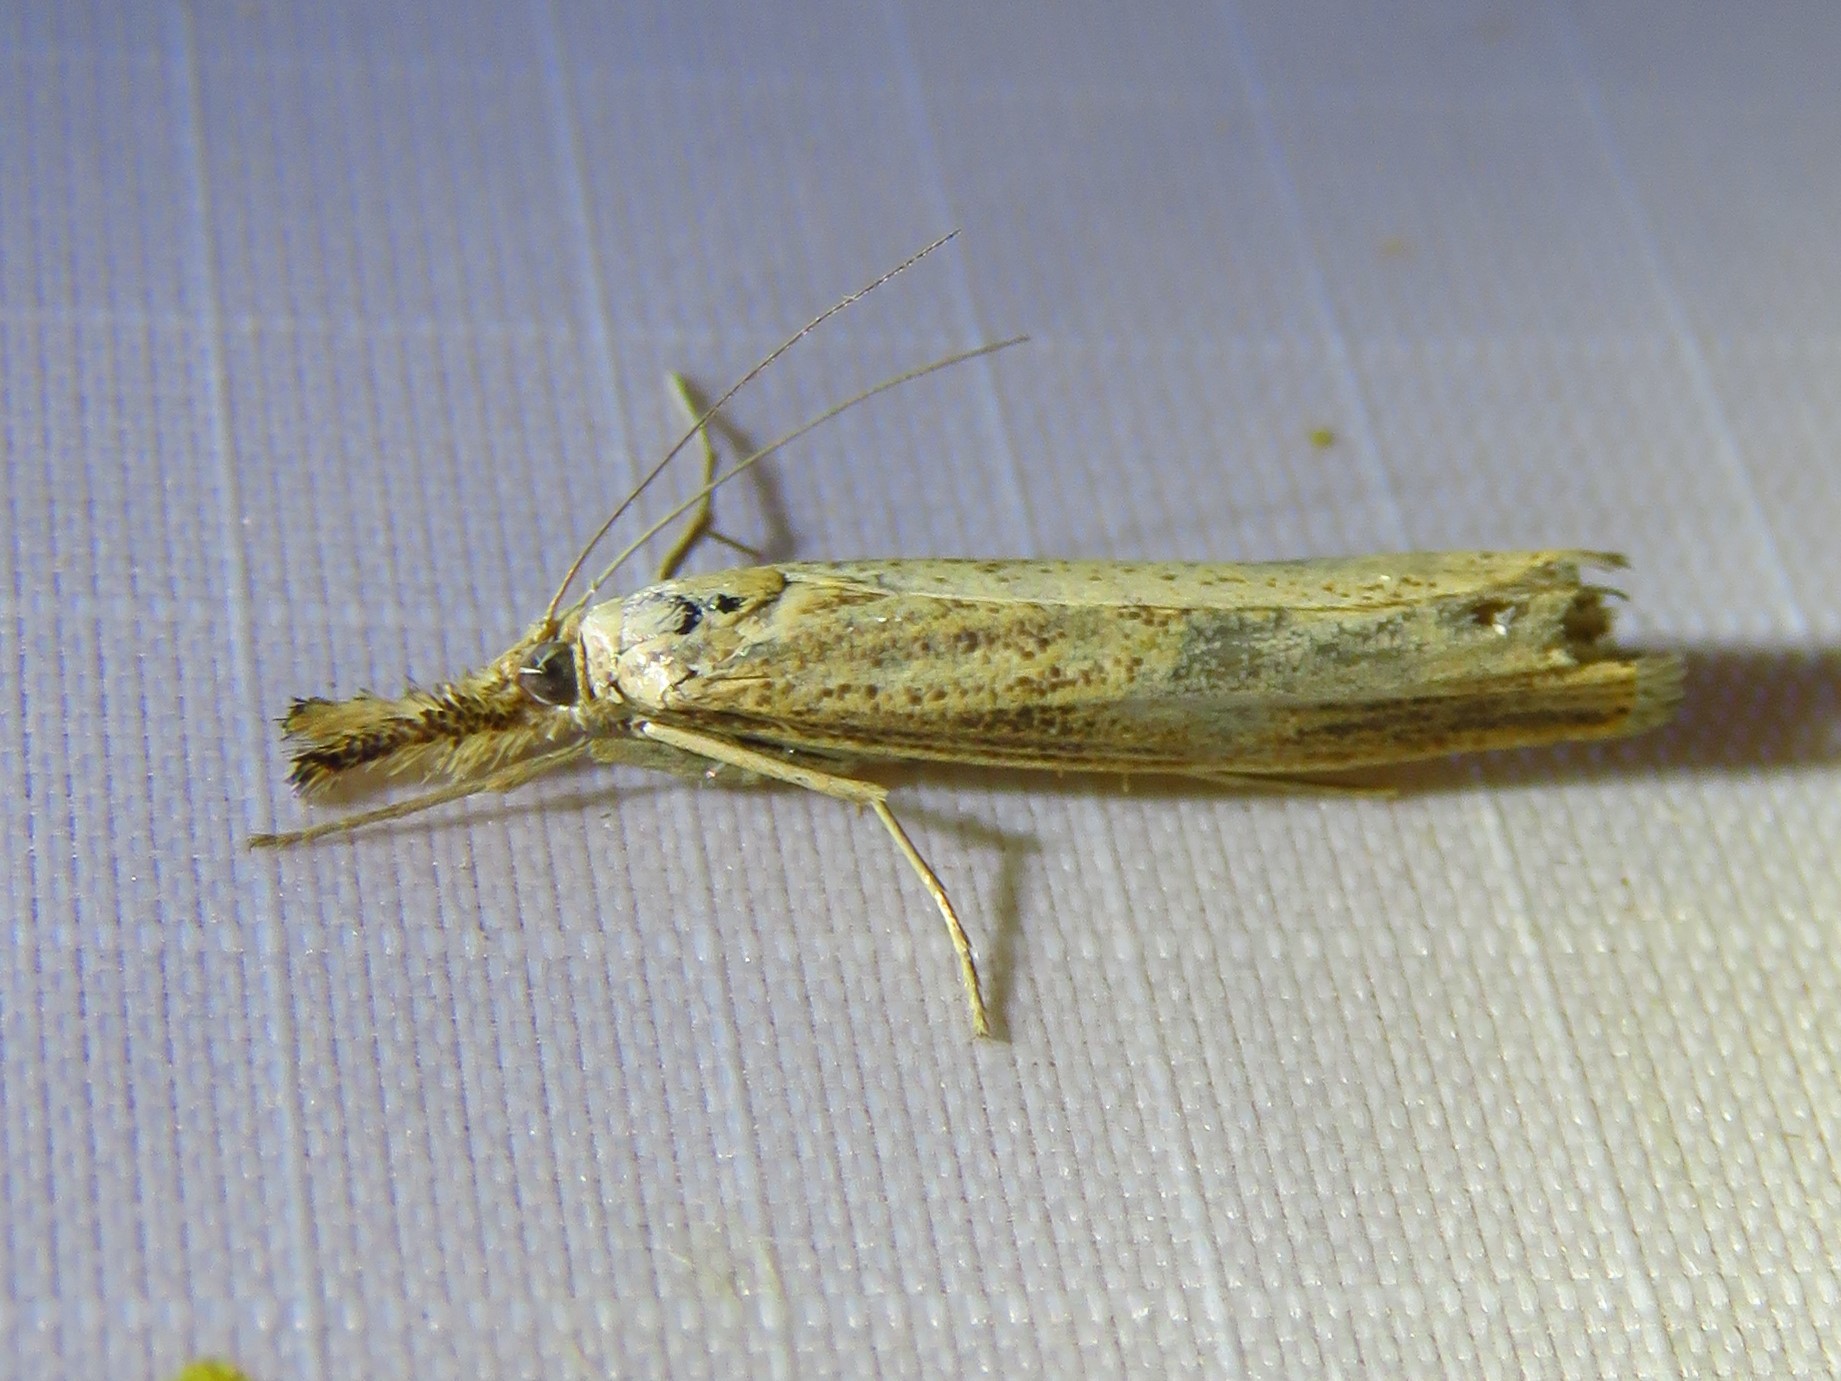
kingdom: Animalia
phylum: Arthropoda
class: Insecta
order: Lepidoptera
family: Crambidae
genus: Agriphila
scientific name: Agriphila vulgivagellus
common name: Vagabond crambus moth
